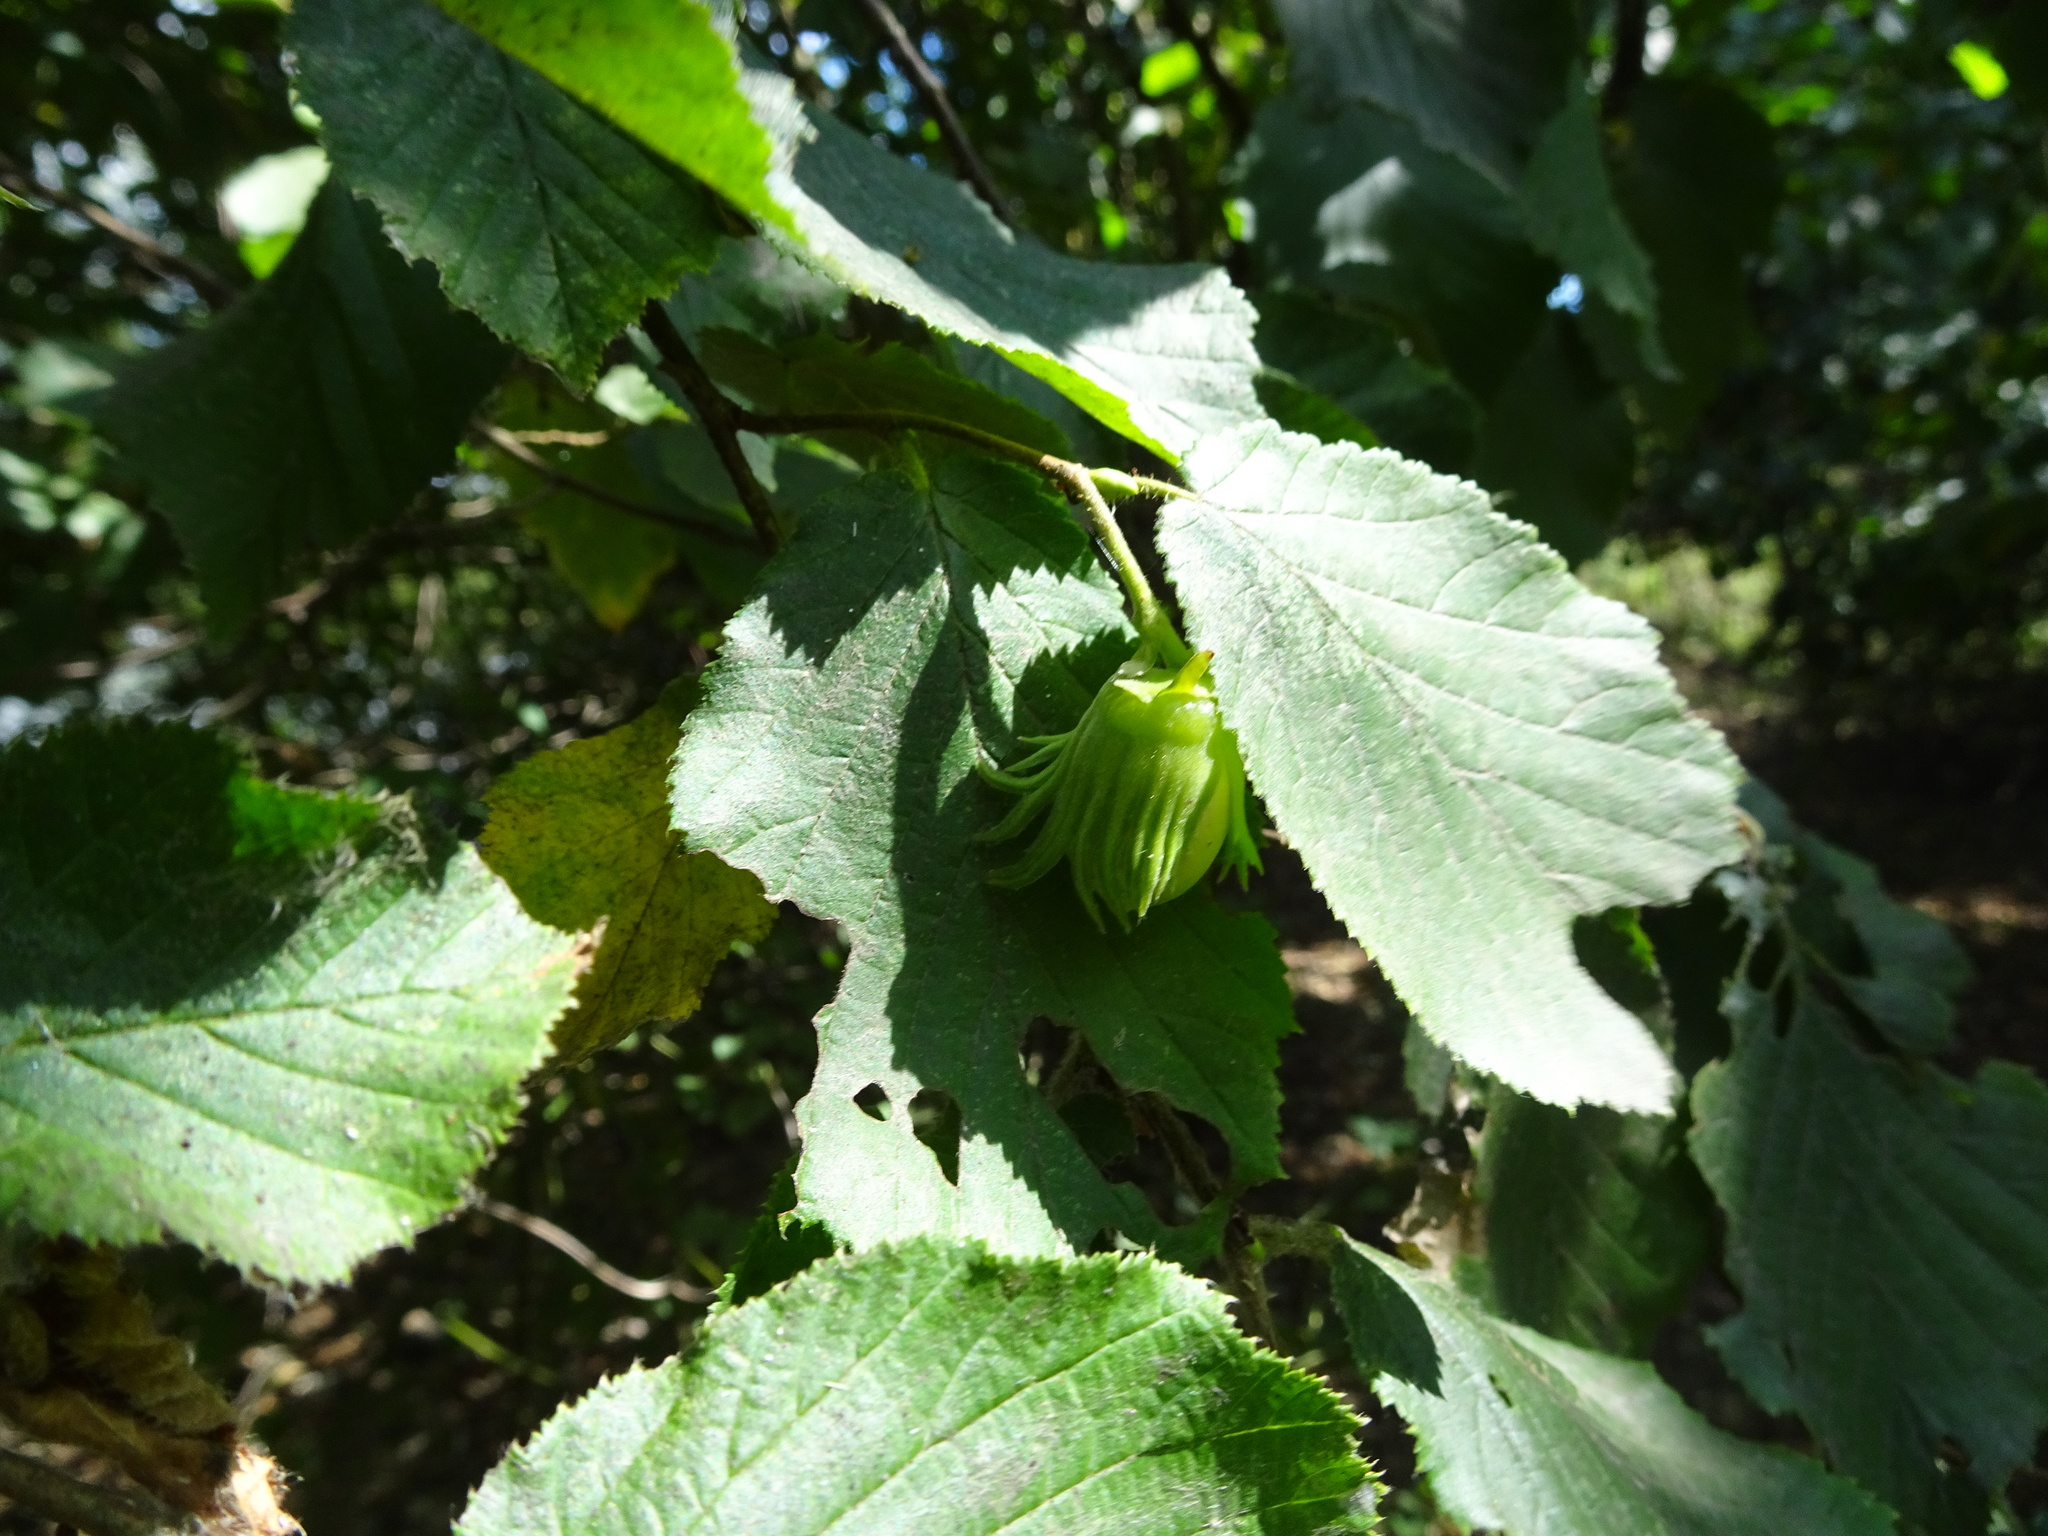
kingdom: Plantae
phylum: Tracheophyta
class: Magnoliopsida
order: Fagales
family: Betulaceae
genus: Corylus
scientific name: Corylus avellana
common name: European hazel
